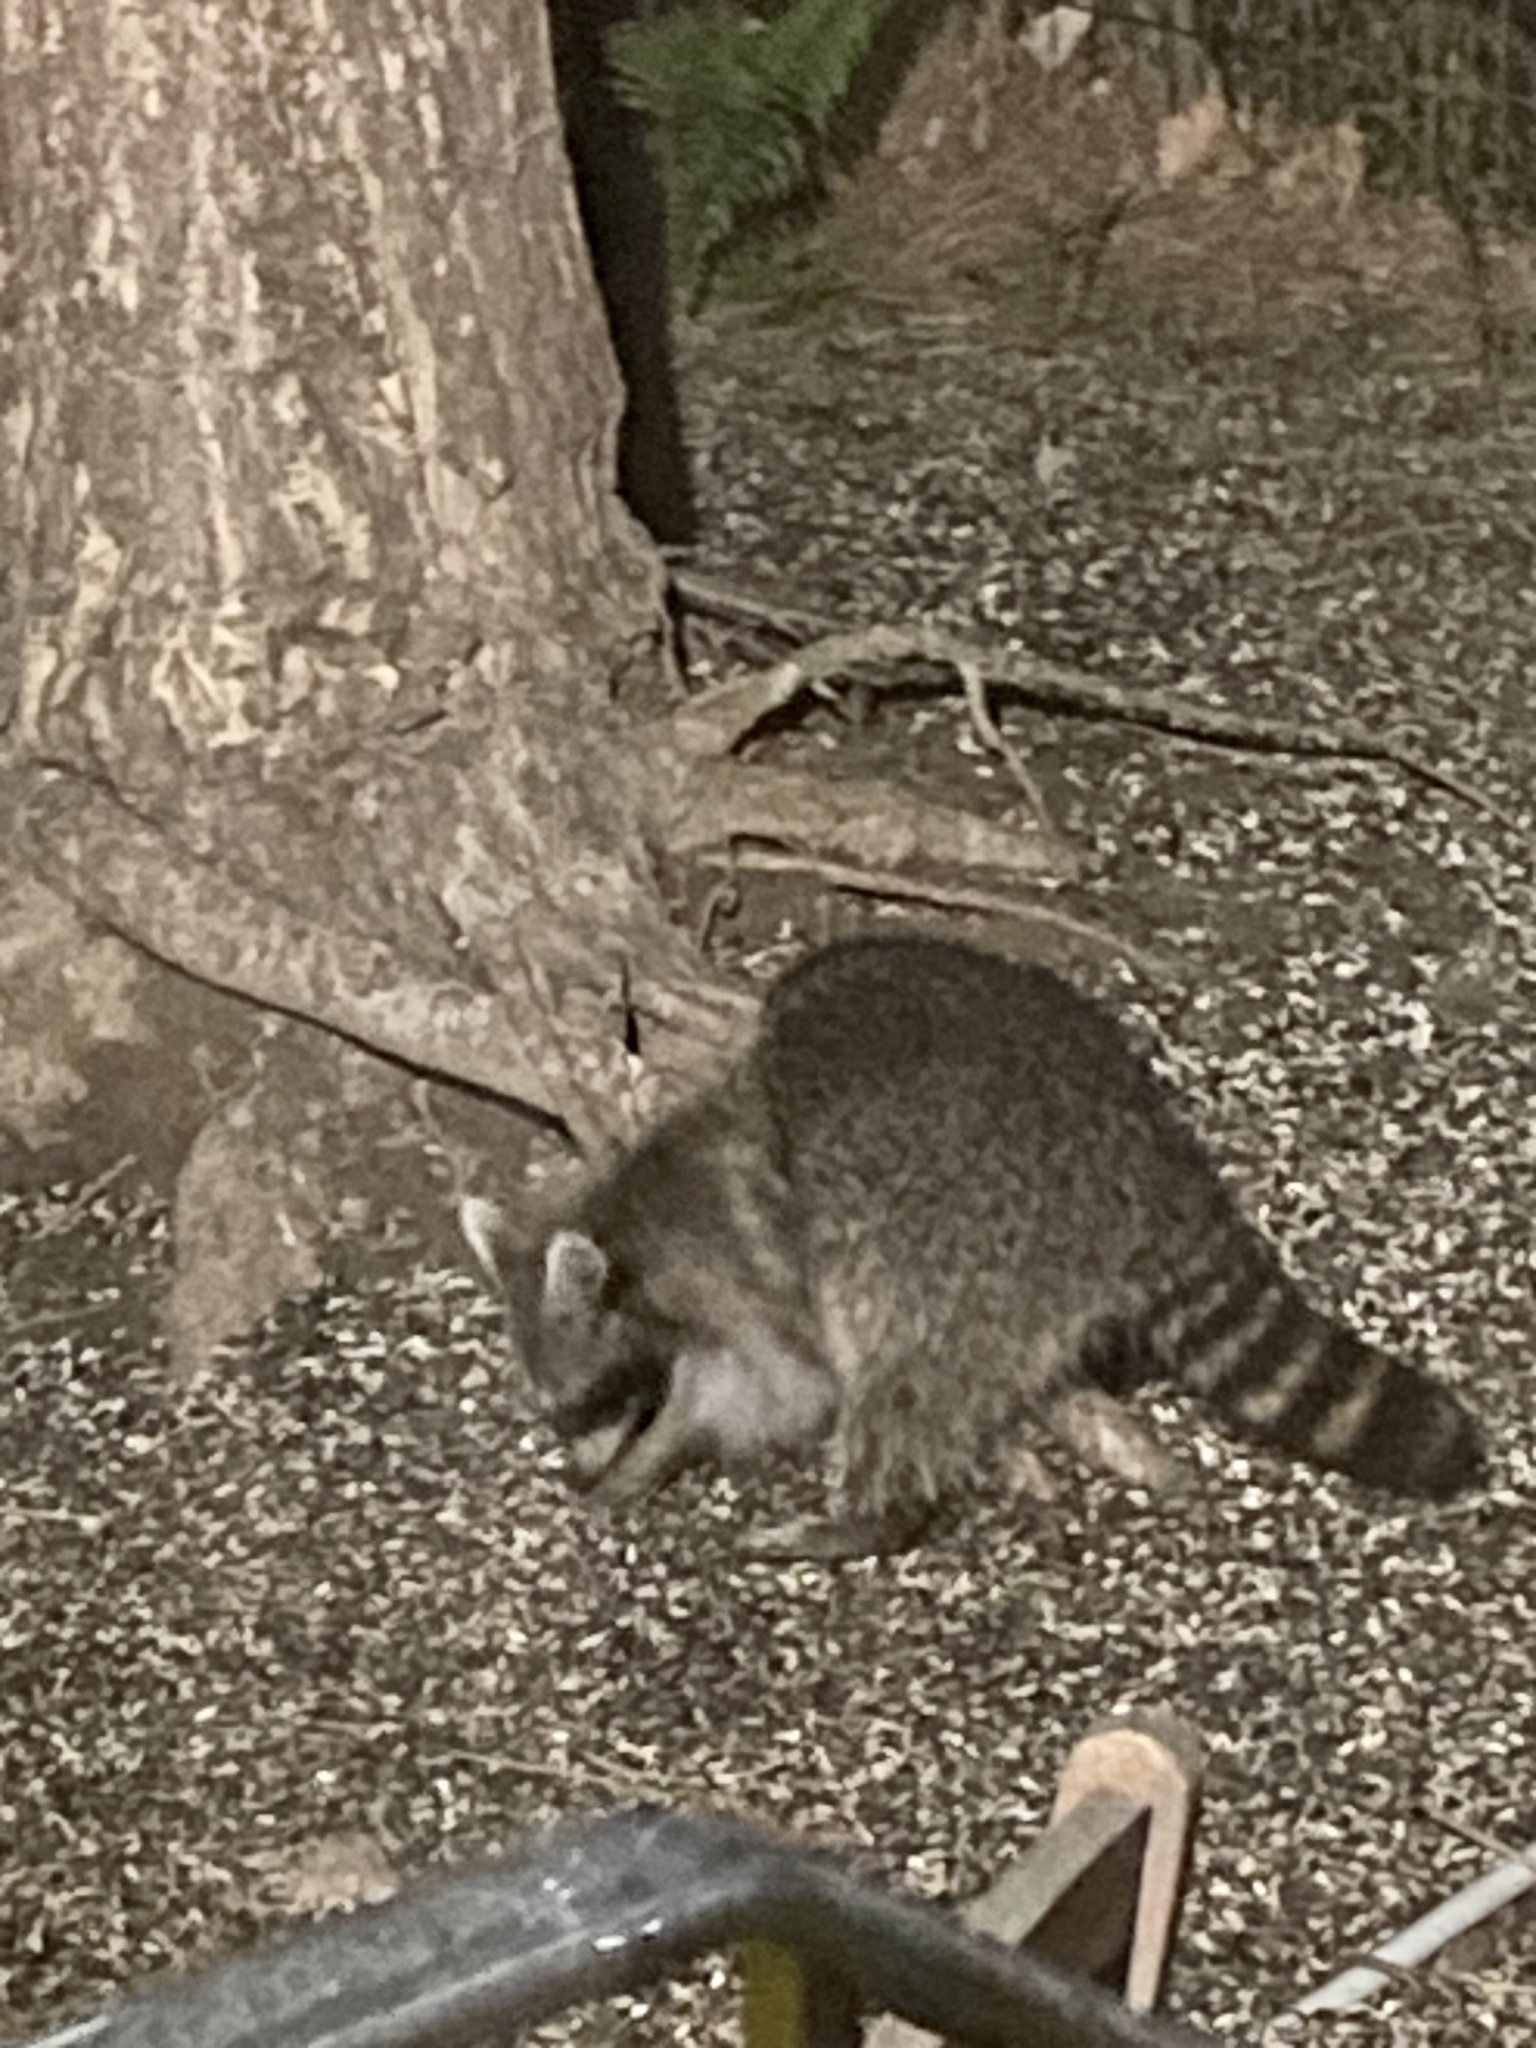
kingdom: Animalia
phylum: Chordata
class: Mammalia
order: Carnivora
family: Procyonidae
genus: Procyon
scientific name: Procyon lotor
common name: Raccoon
